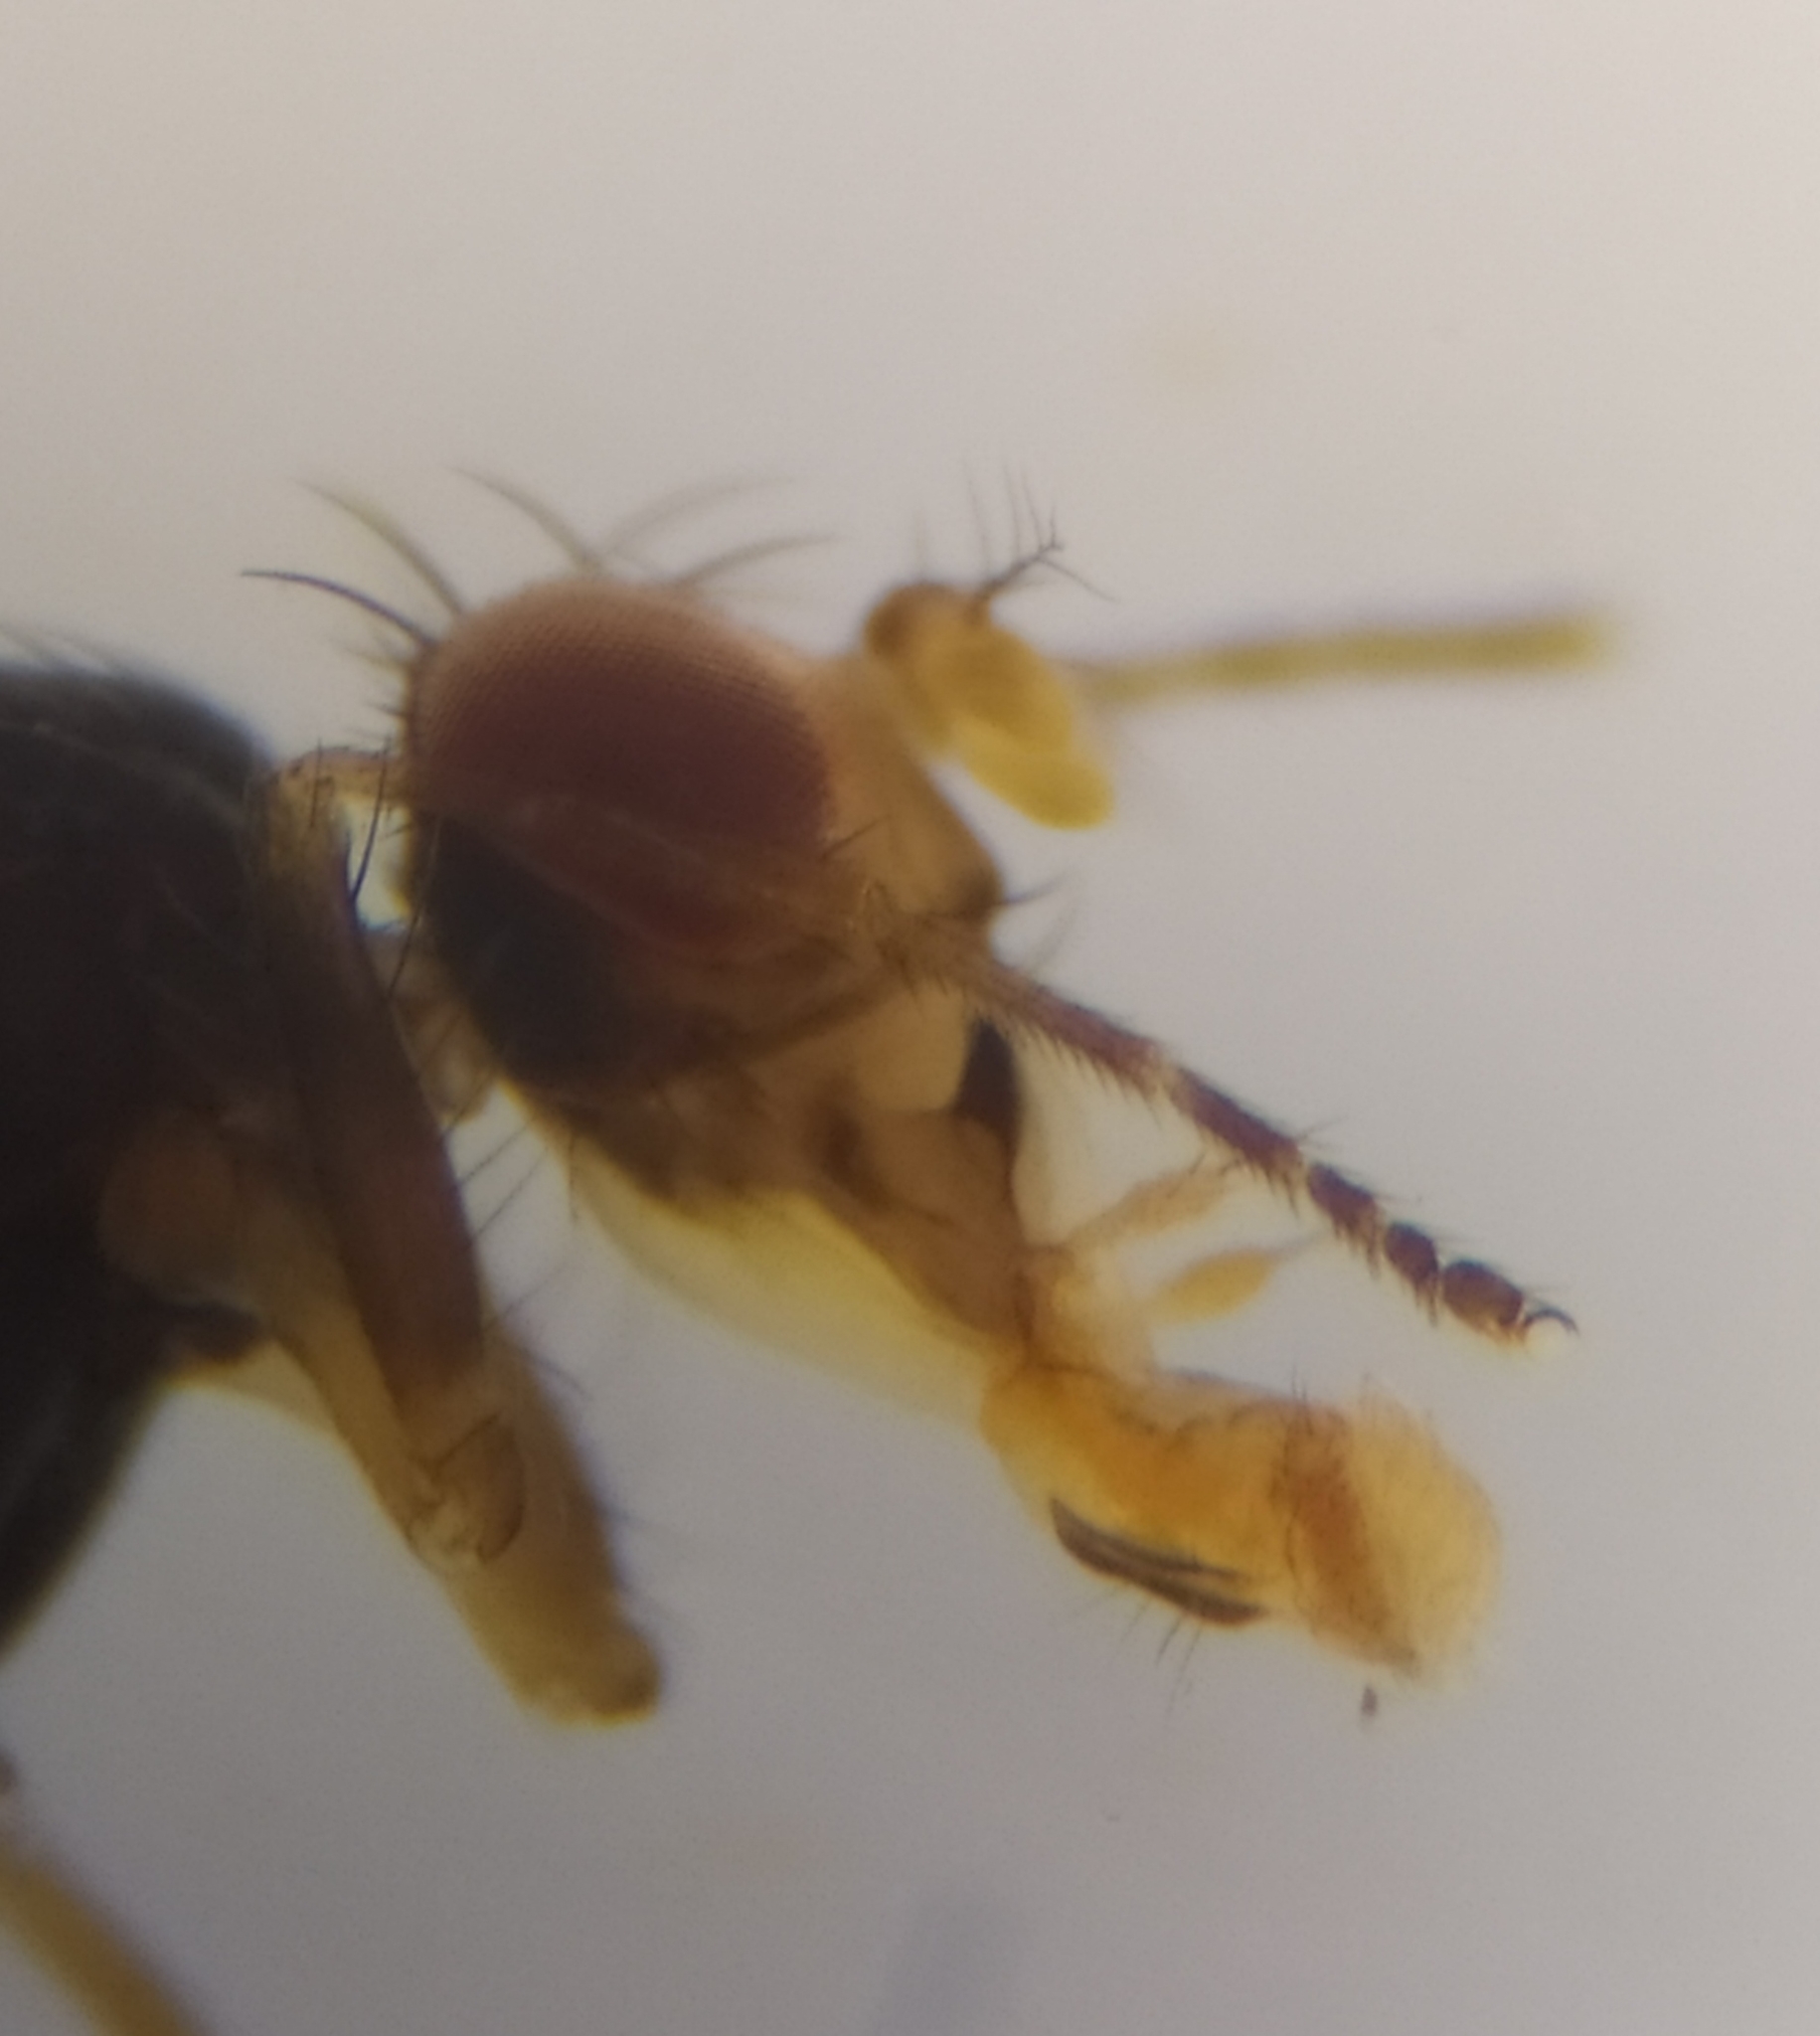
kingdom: Animalia
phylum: Arthropoda
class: Insecta
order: Diptera
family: Drosophilidae
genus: Scaptomyza
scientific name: Scaptomyza pallida
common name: Pomace fly
